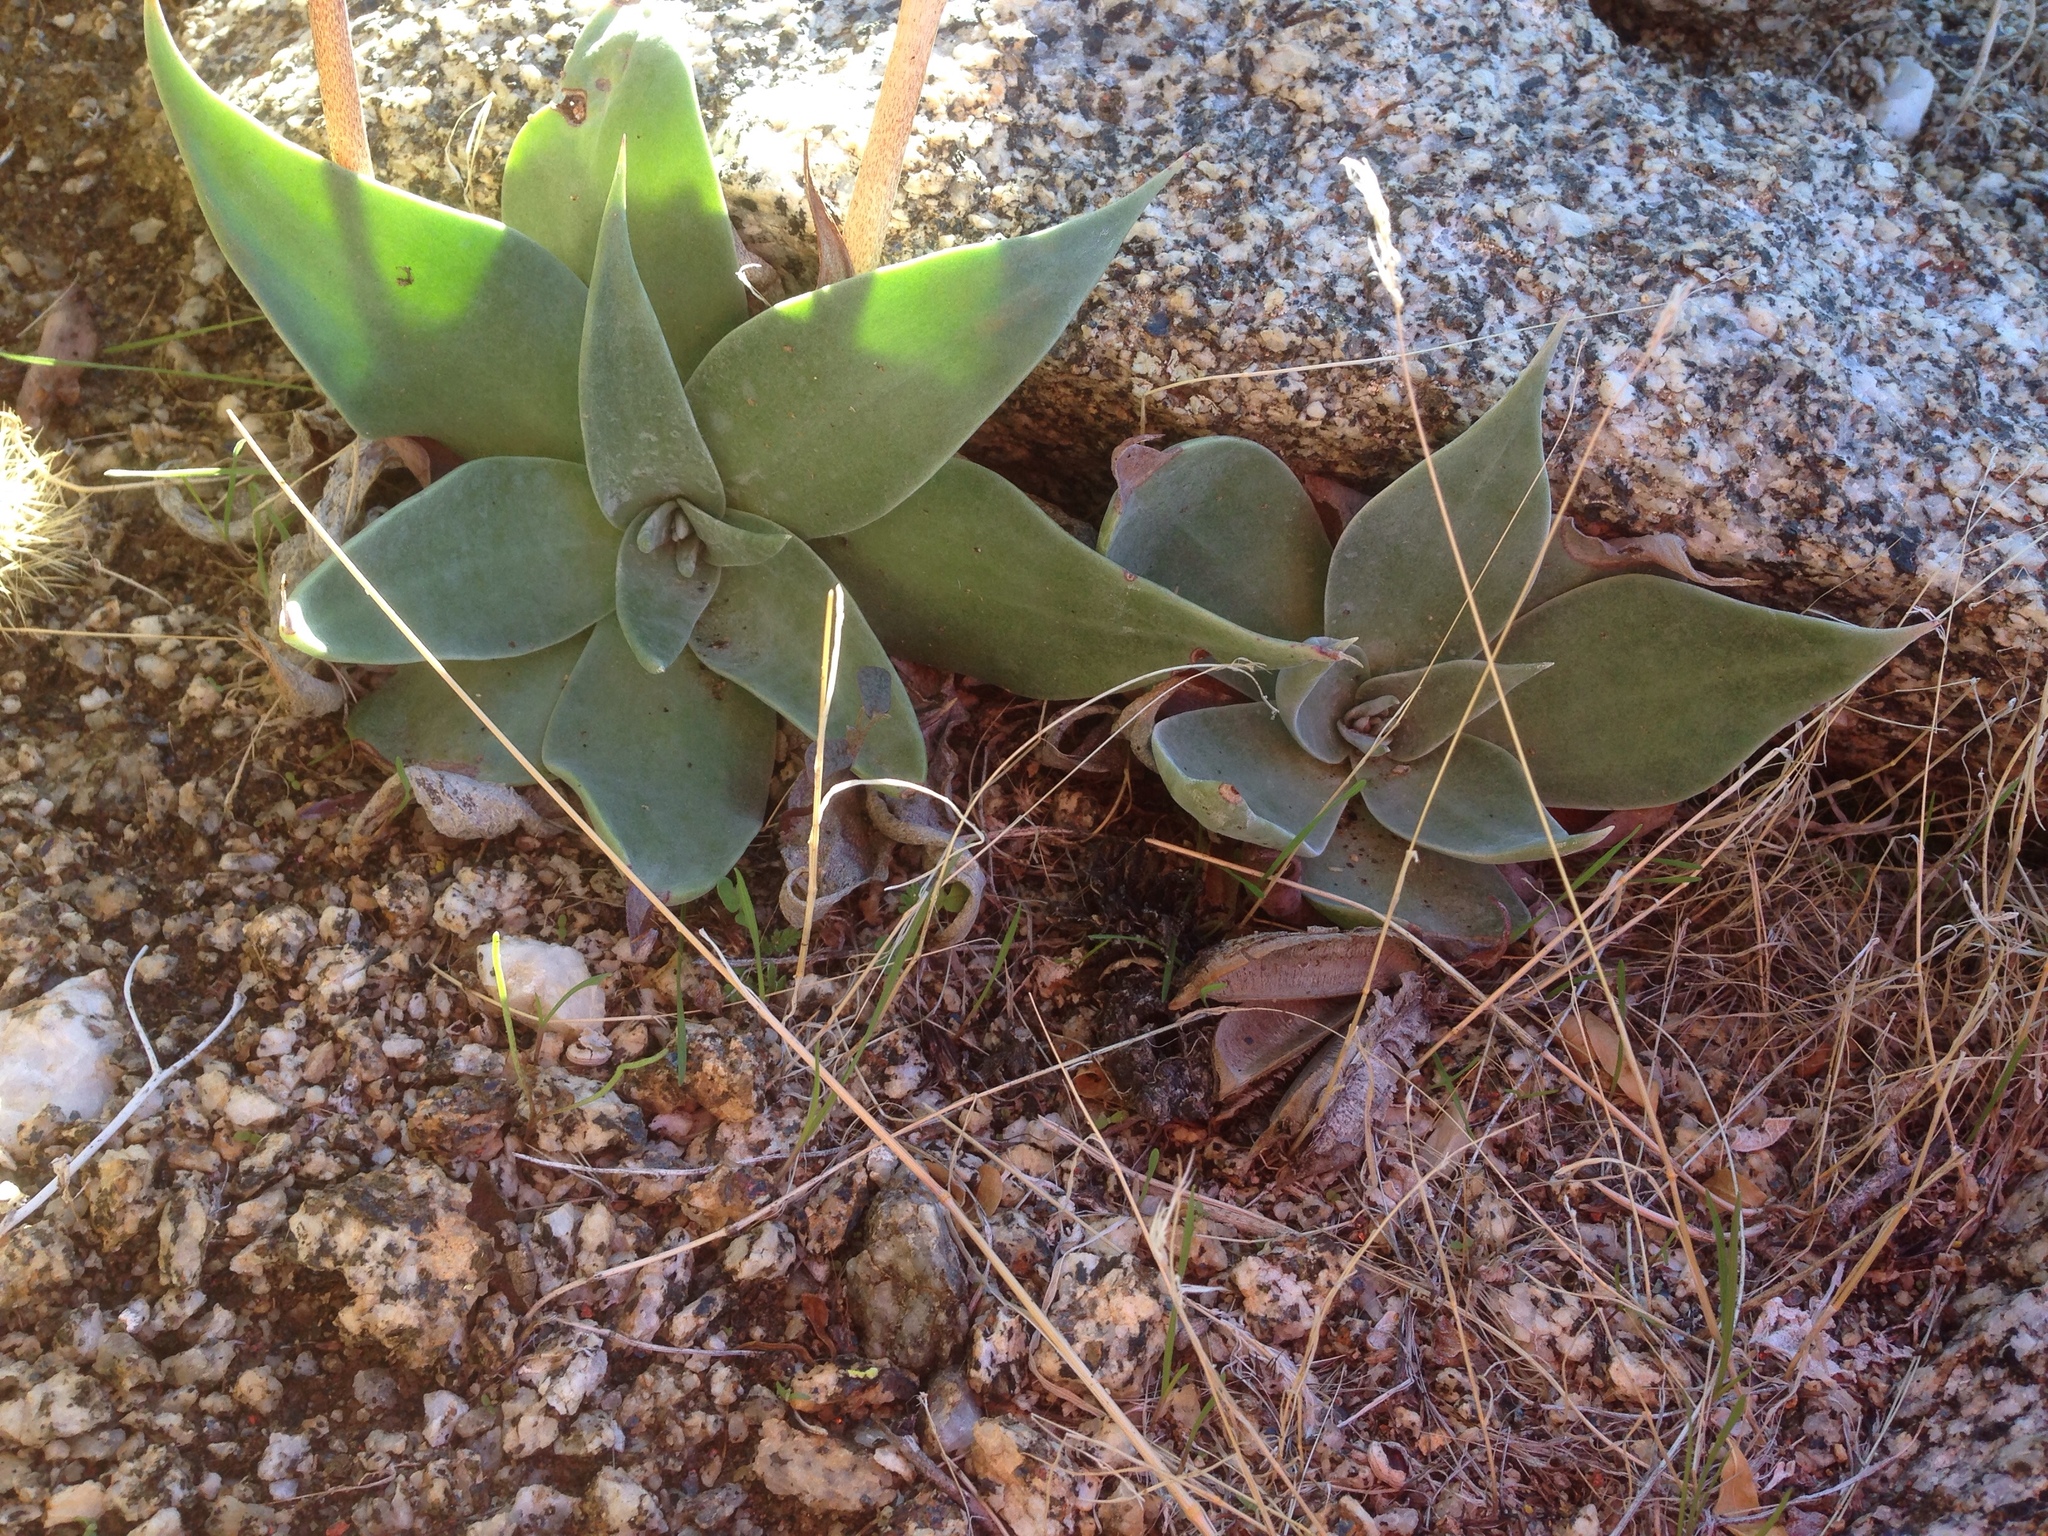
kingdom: Plantae
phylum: Tracheophyta
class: Magnoliopsida
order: Saxifragales
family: Crassulaceae
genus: Dudleya
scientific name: Dudleya arizonica
